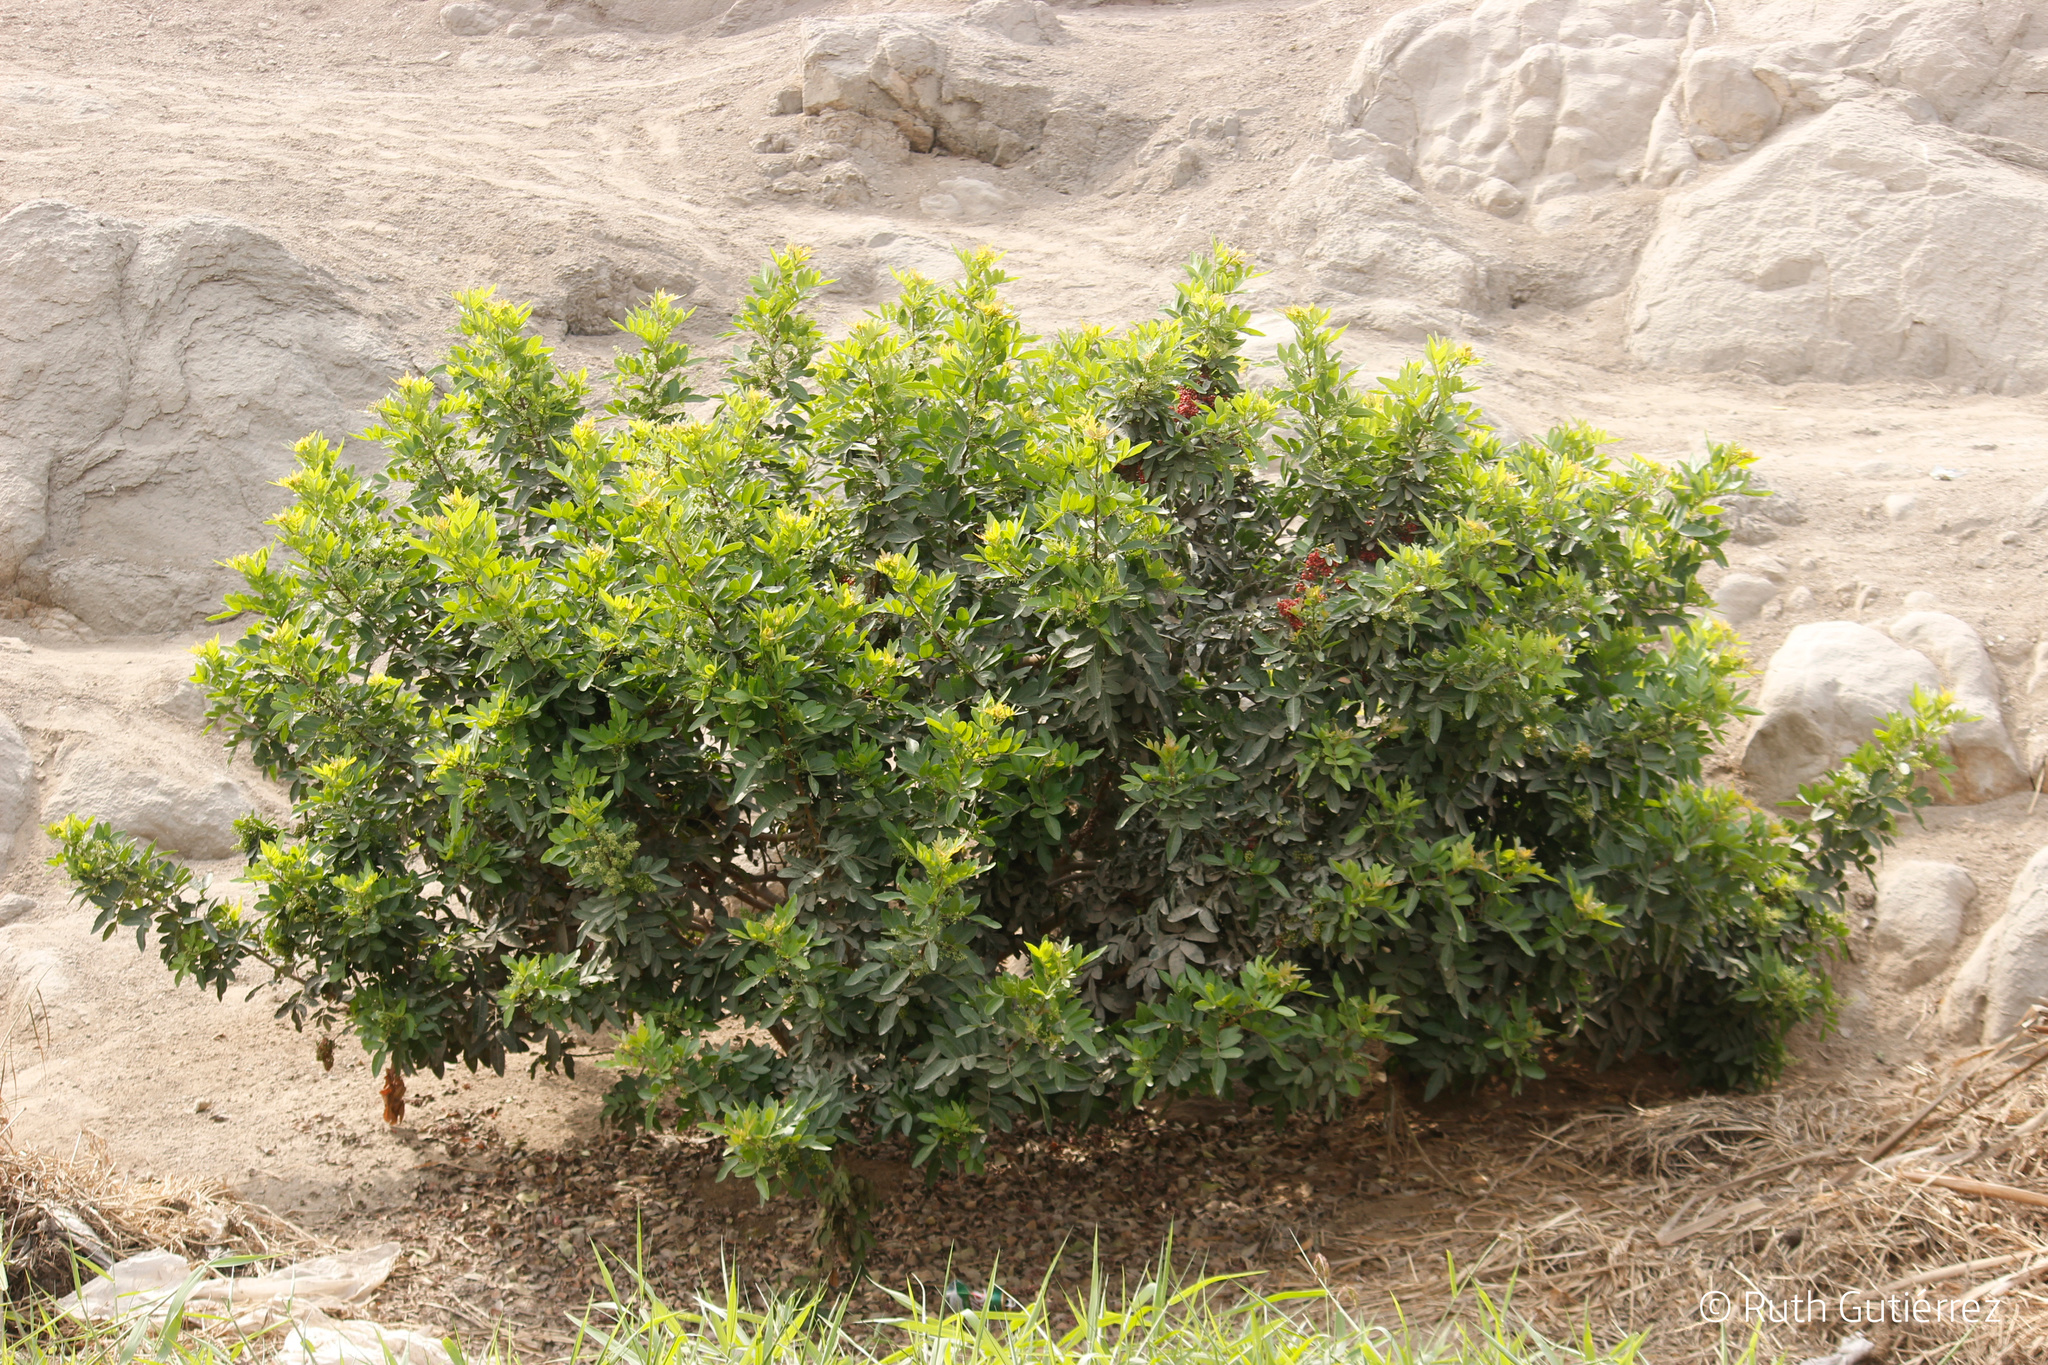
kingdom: Plantae
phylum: Tracheophyta
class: Magnoliopsida
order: Sapindales
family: Anacardiaceae
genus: Schinus
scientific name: Schinus terebinthifolia
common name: Brazilian peppertree
